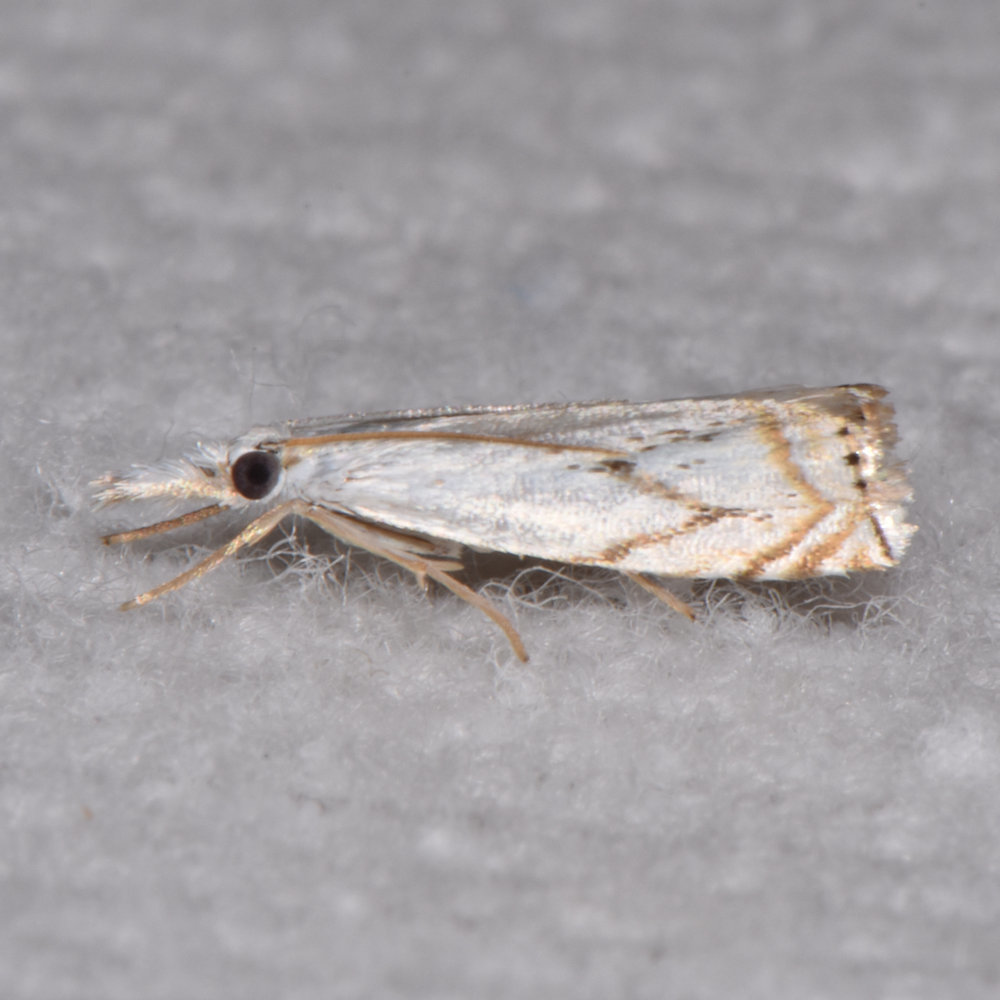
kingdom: Animalia
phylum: Arthropoda
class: Insecta
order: Lepidoptera
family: Crambidae
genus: Crambus
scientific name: Crambus albellus
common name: Small white grass-veneer
